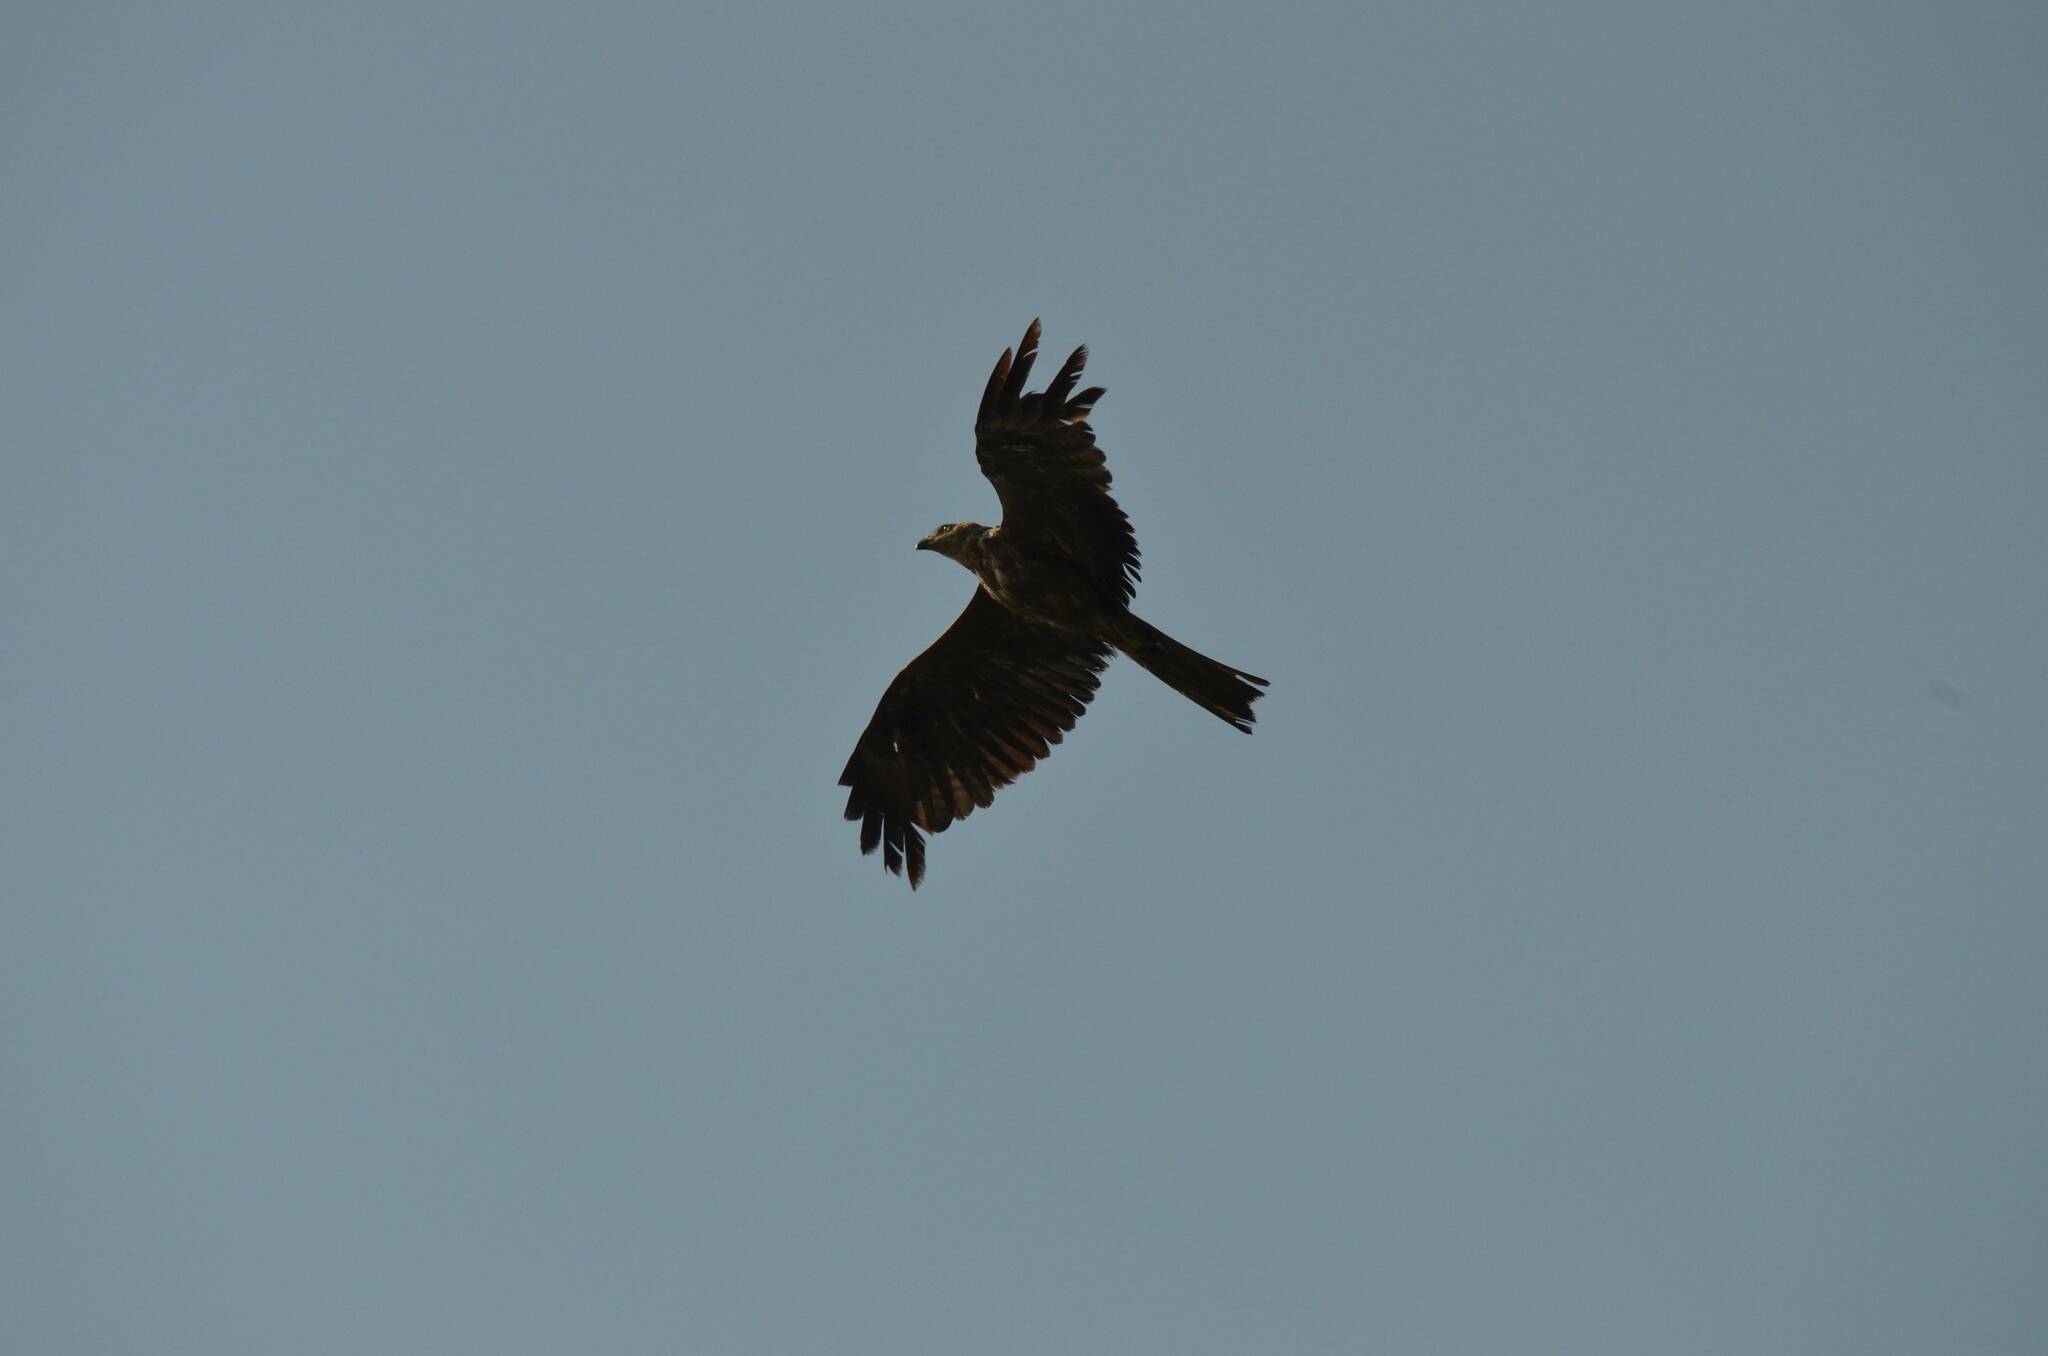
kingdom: Animalia
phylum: Chordata
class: Aves
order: Accipitriformes
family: Accipitridae
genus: Milvus
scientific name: Milvus migrans
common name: Black kite
